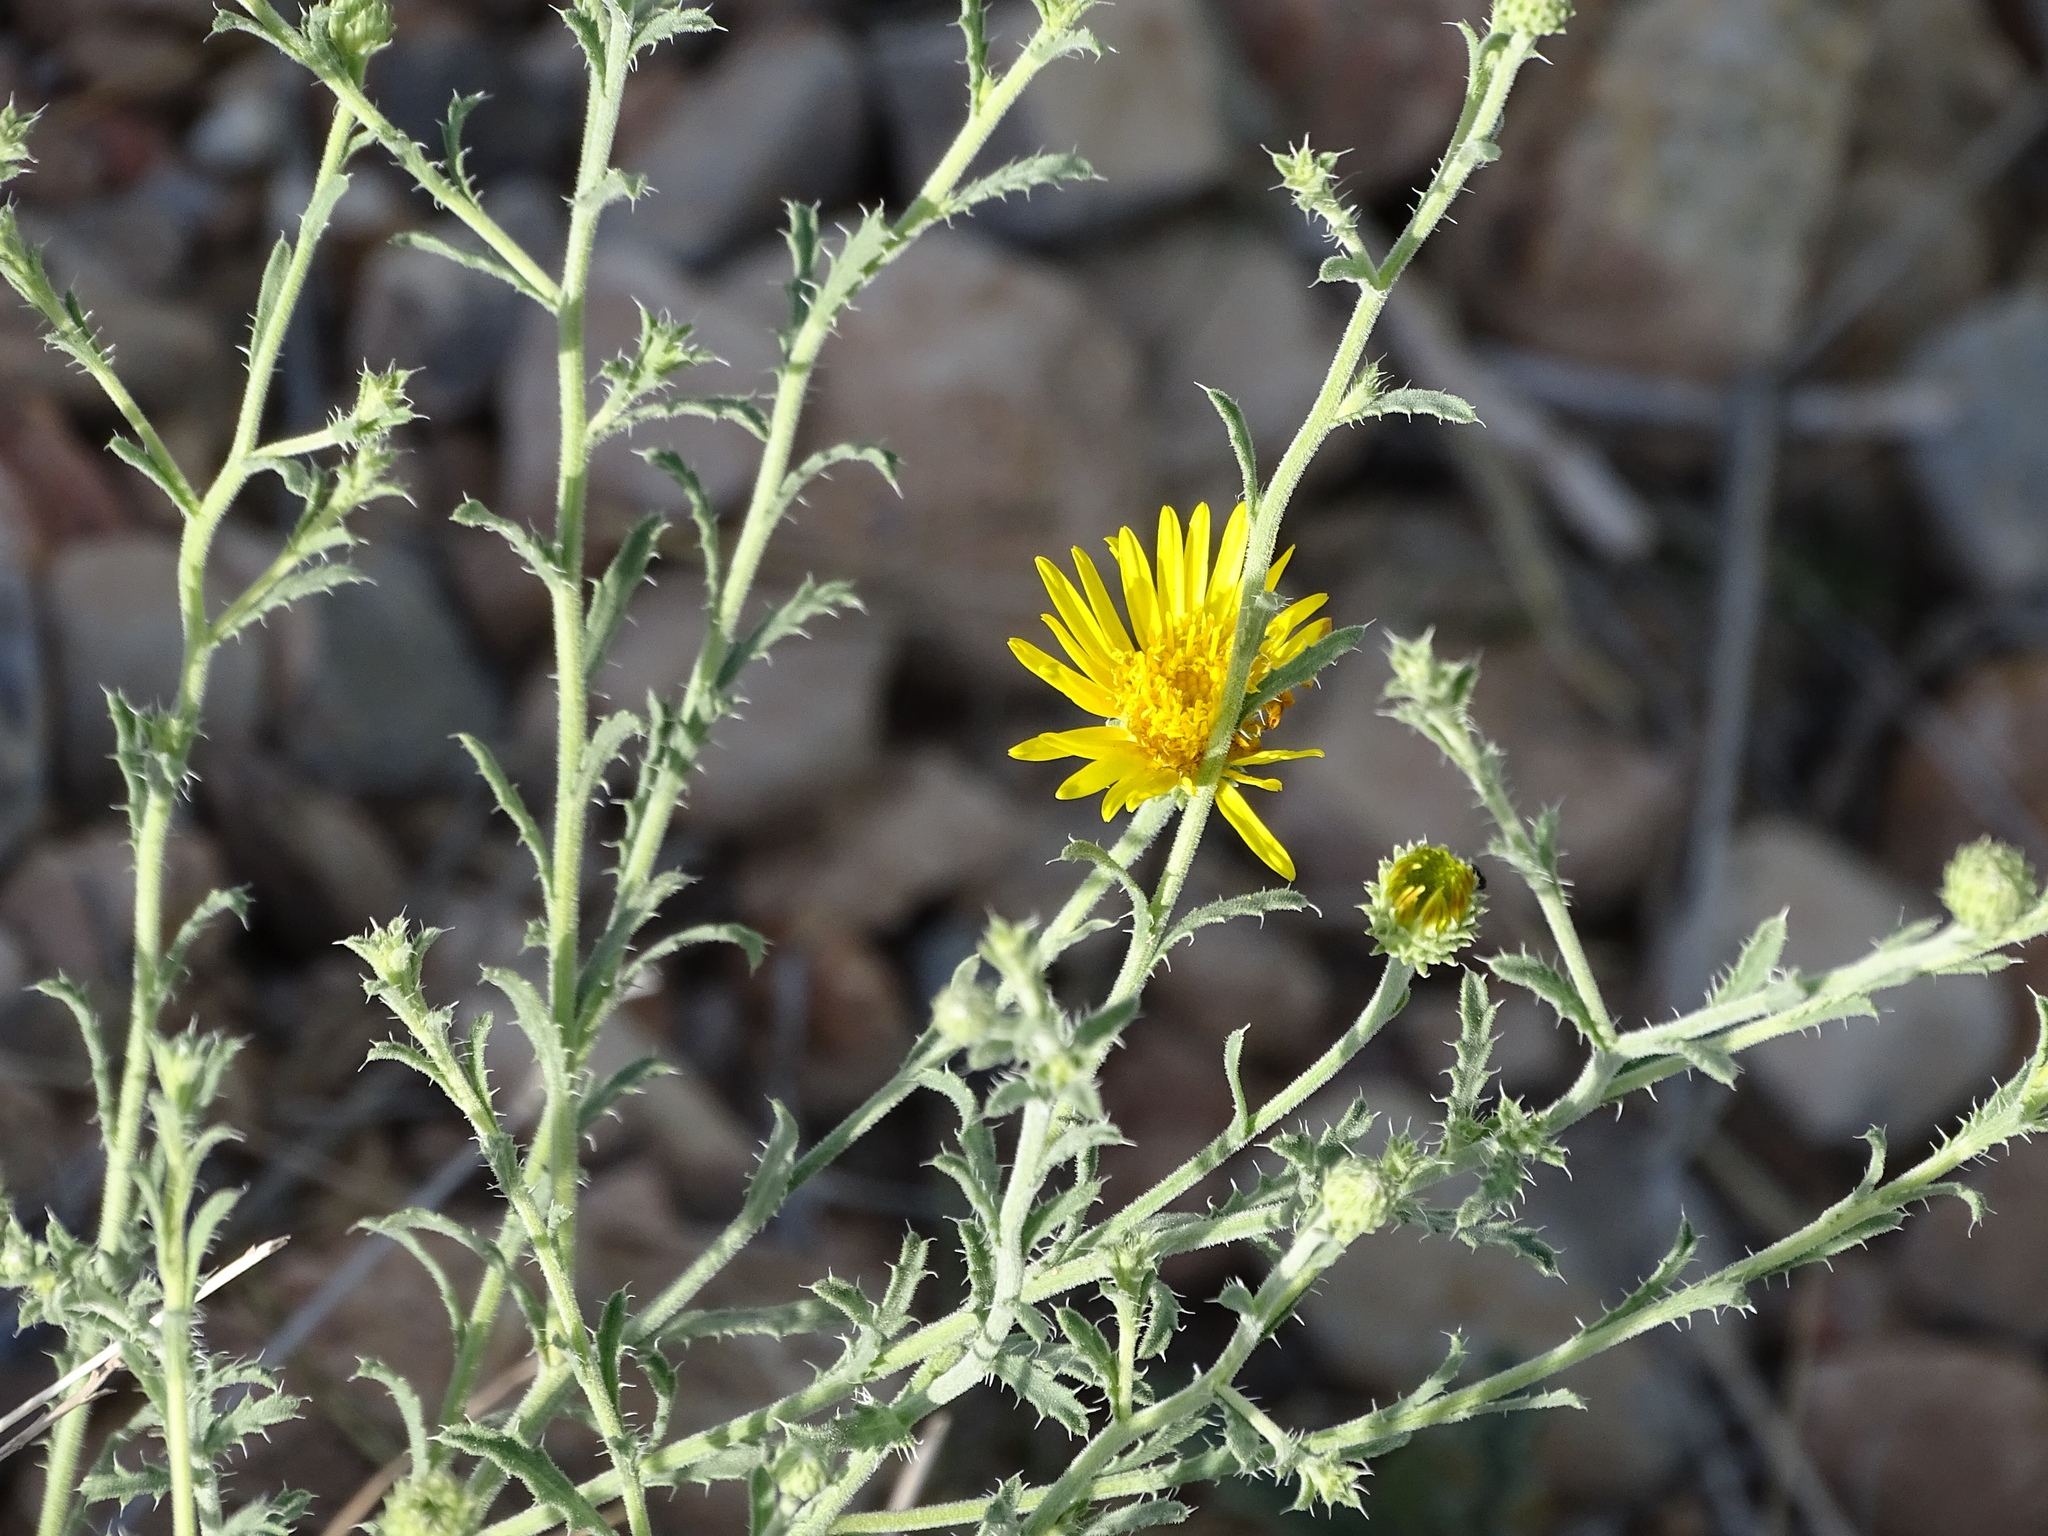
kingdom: Plantae
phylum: Tracheophyta
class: Magnoliopsida
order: Asterales
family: Asteraceae
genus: Xanthisma
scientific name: Xanthisma spinulosum
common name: Spiny goldenweed
